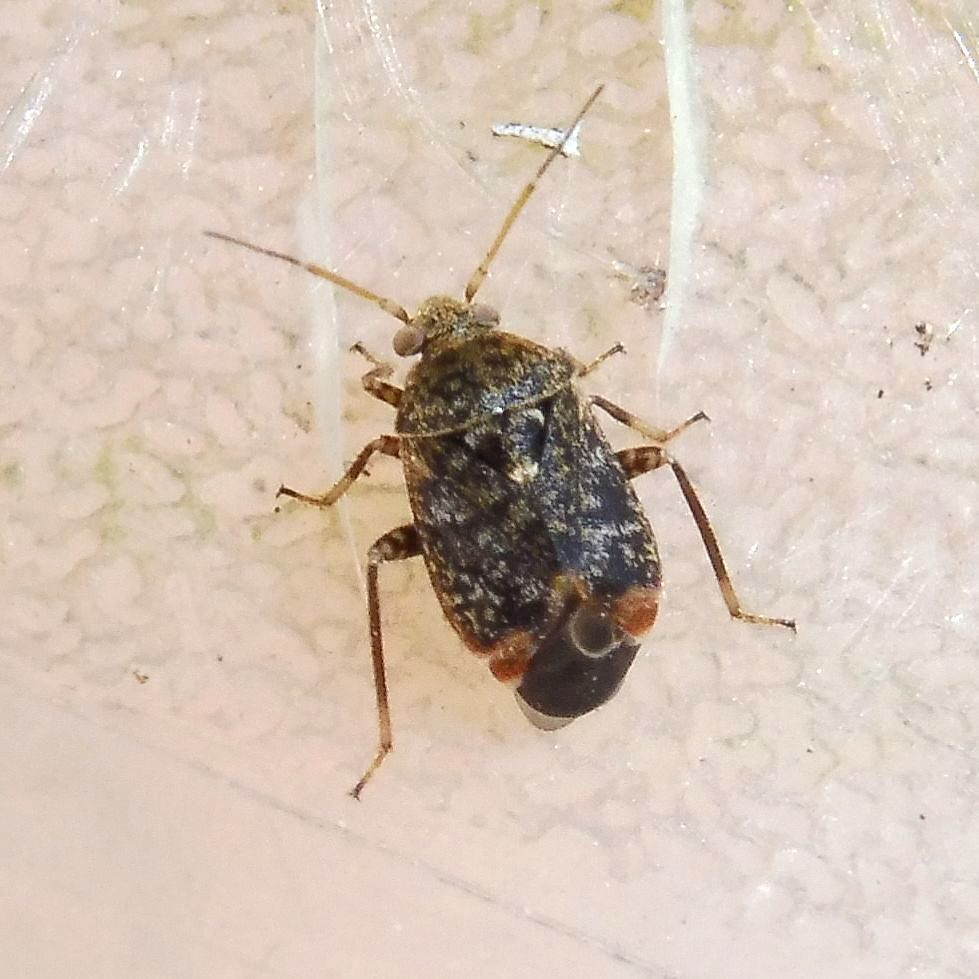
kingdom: Animalia
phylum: Arthropoda
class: Insecta
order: Hemiptera
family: Miridae
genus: Charagochilus
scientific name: Charagochilus gyllenhalii
